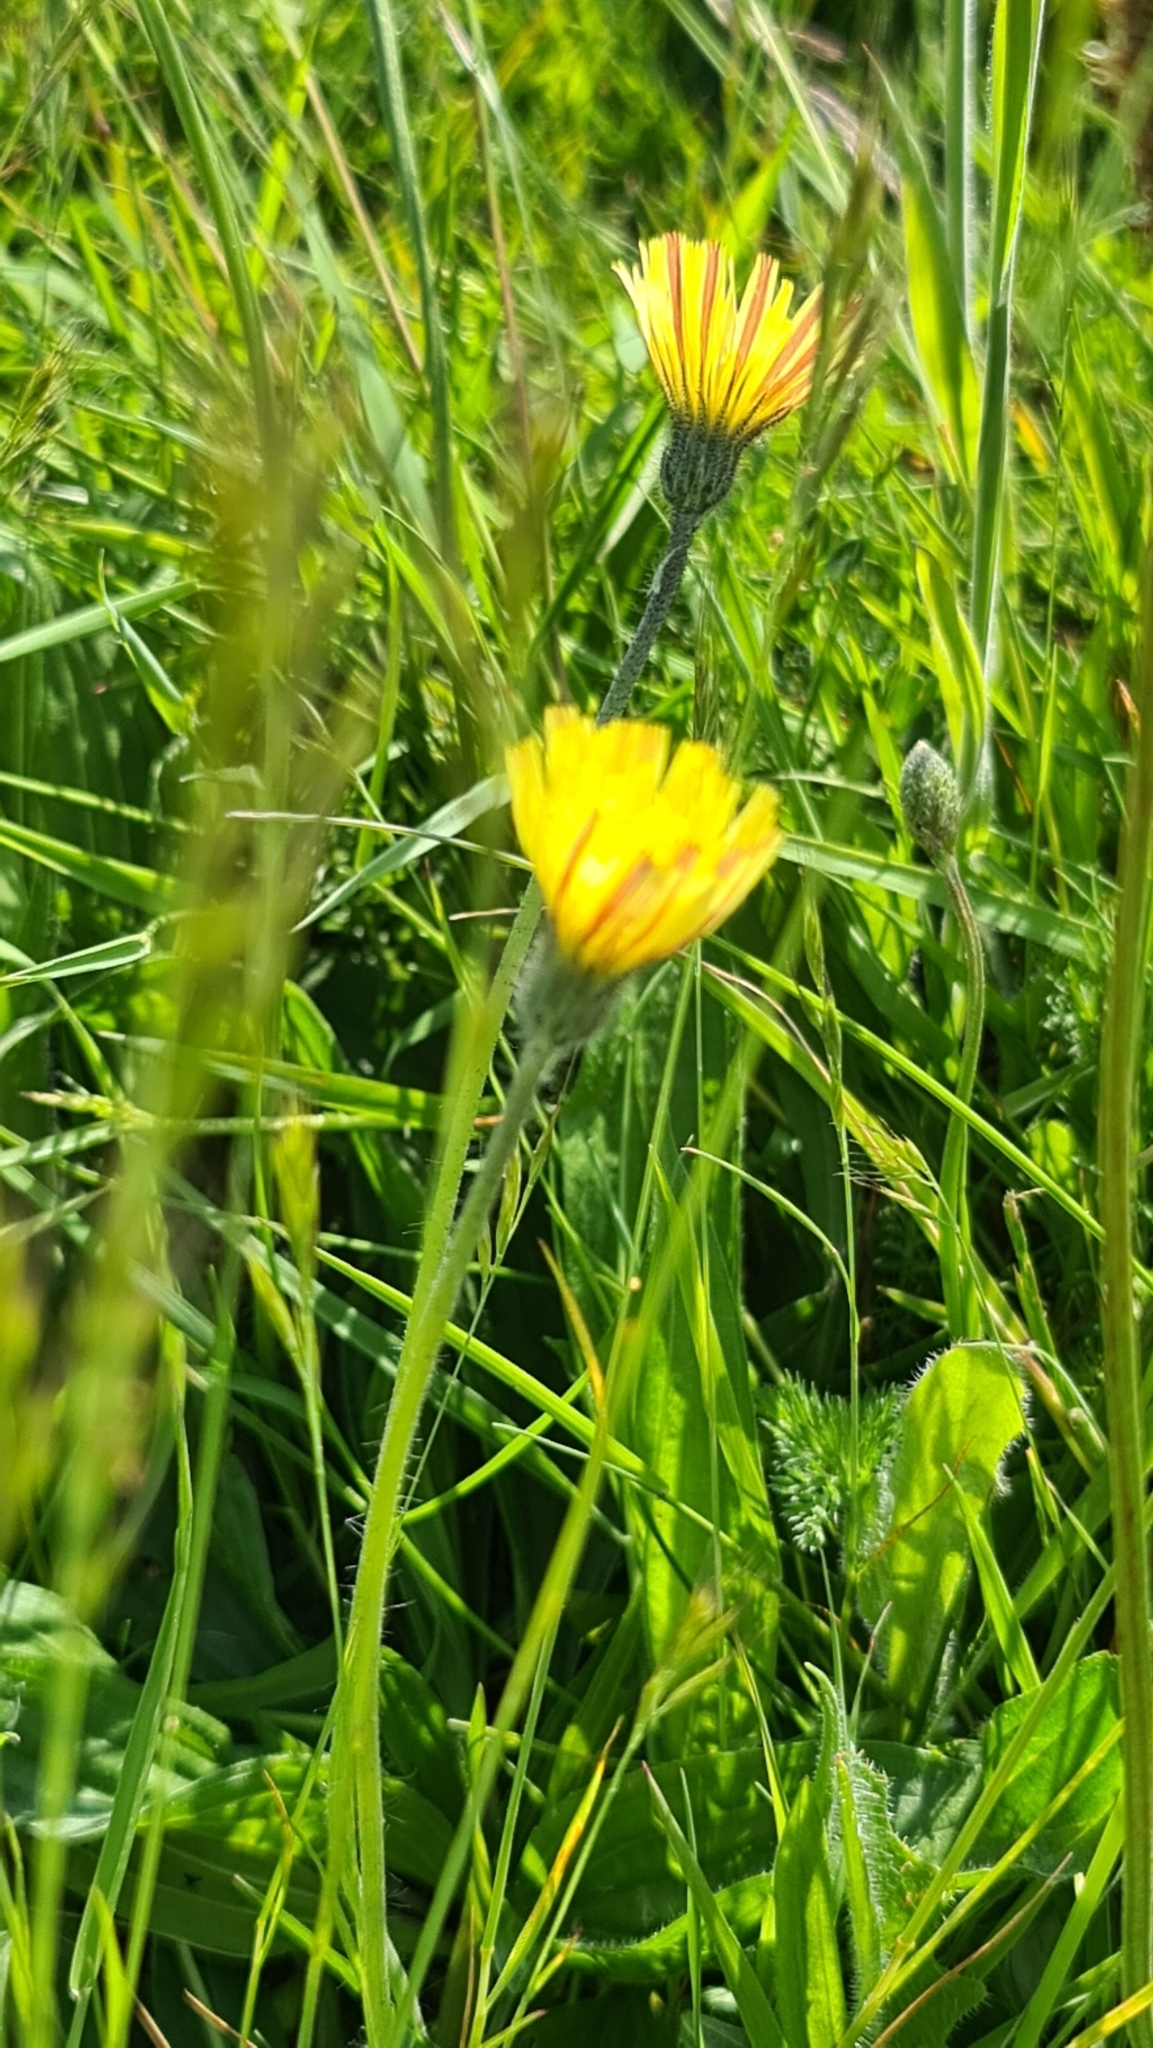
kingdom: Plantae
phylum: Tracheophyta
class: Magnoliopsida
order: Asterales
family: Asteraceae
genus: Pilosella
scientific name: Pilosella officinarum
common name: Mouse-ear hawkweed
